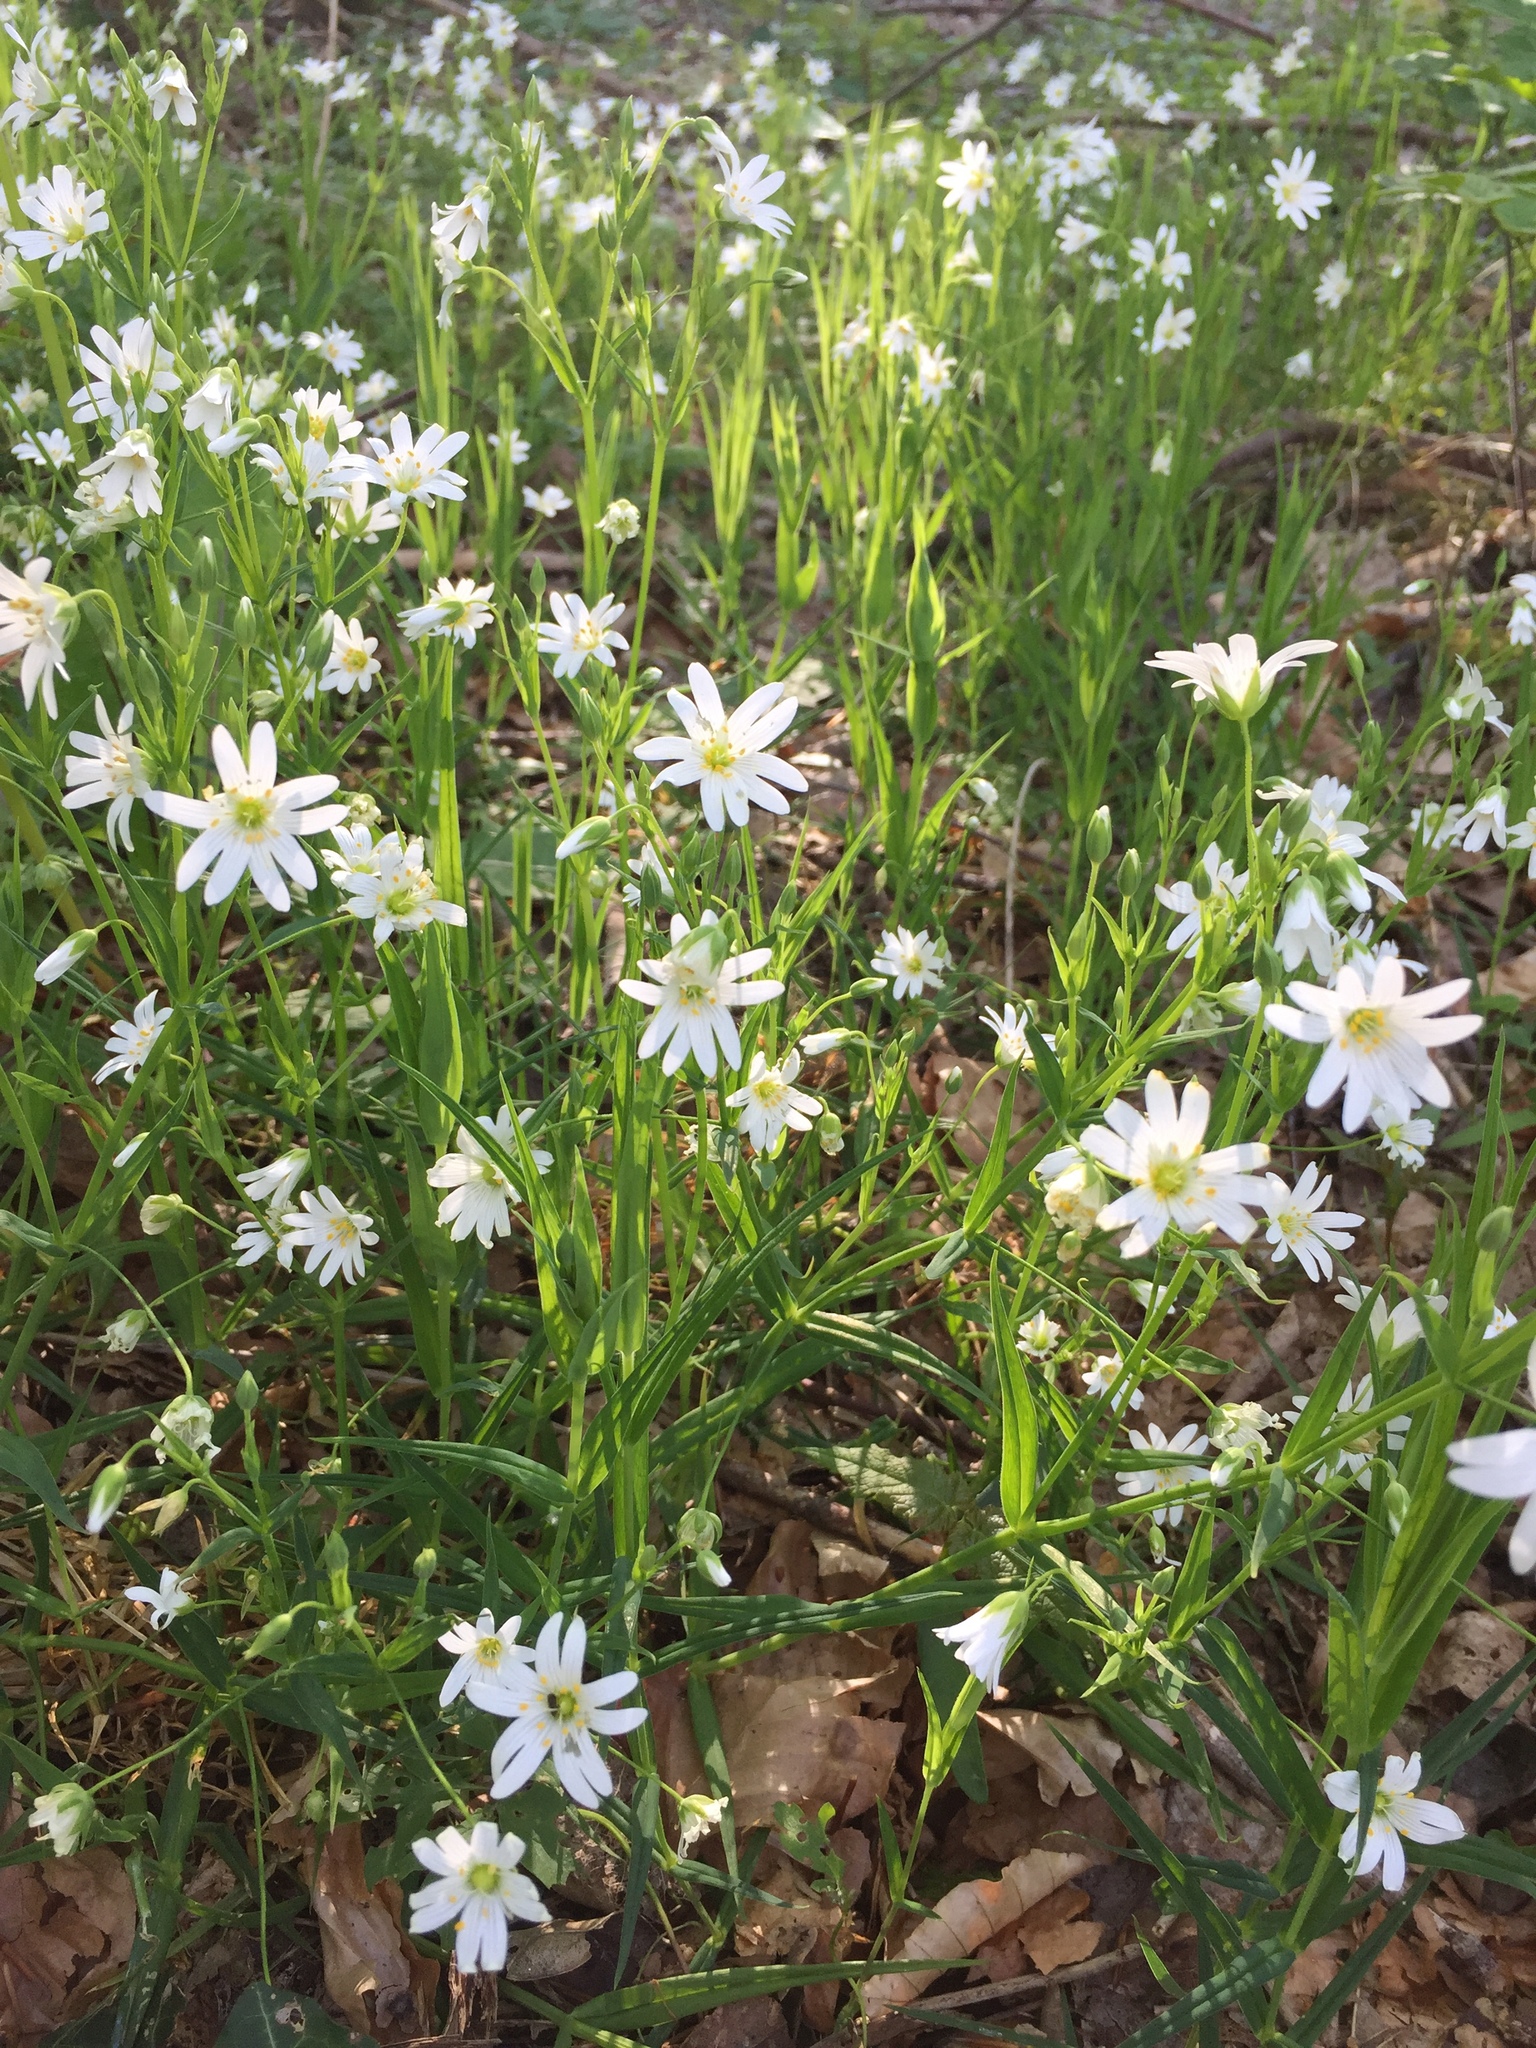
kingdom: Plantae
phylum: Tracheophyta
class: Magnoliopsida
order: Caryophyllales
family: Caryophyllaceae
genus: Rabelera
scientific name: Rabelera holostea
